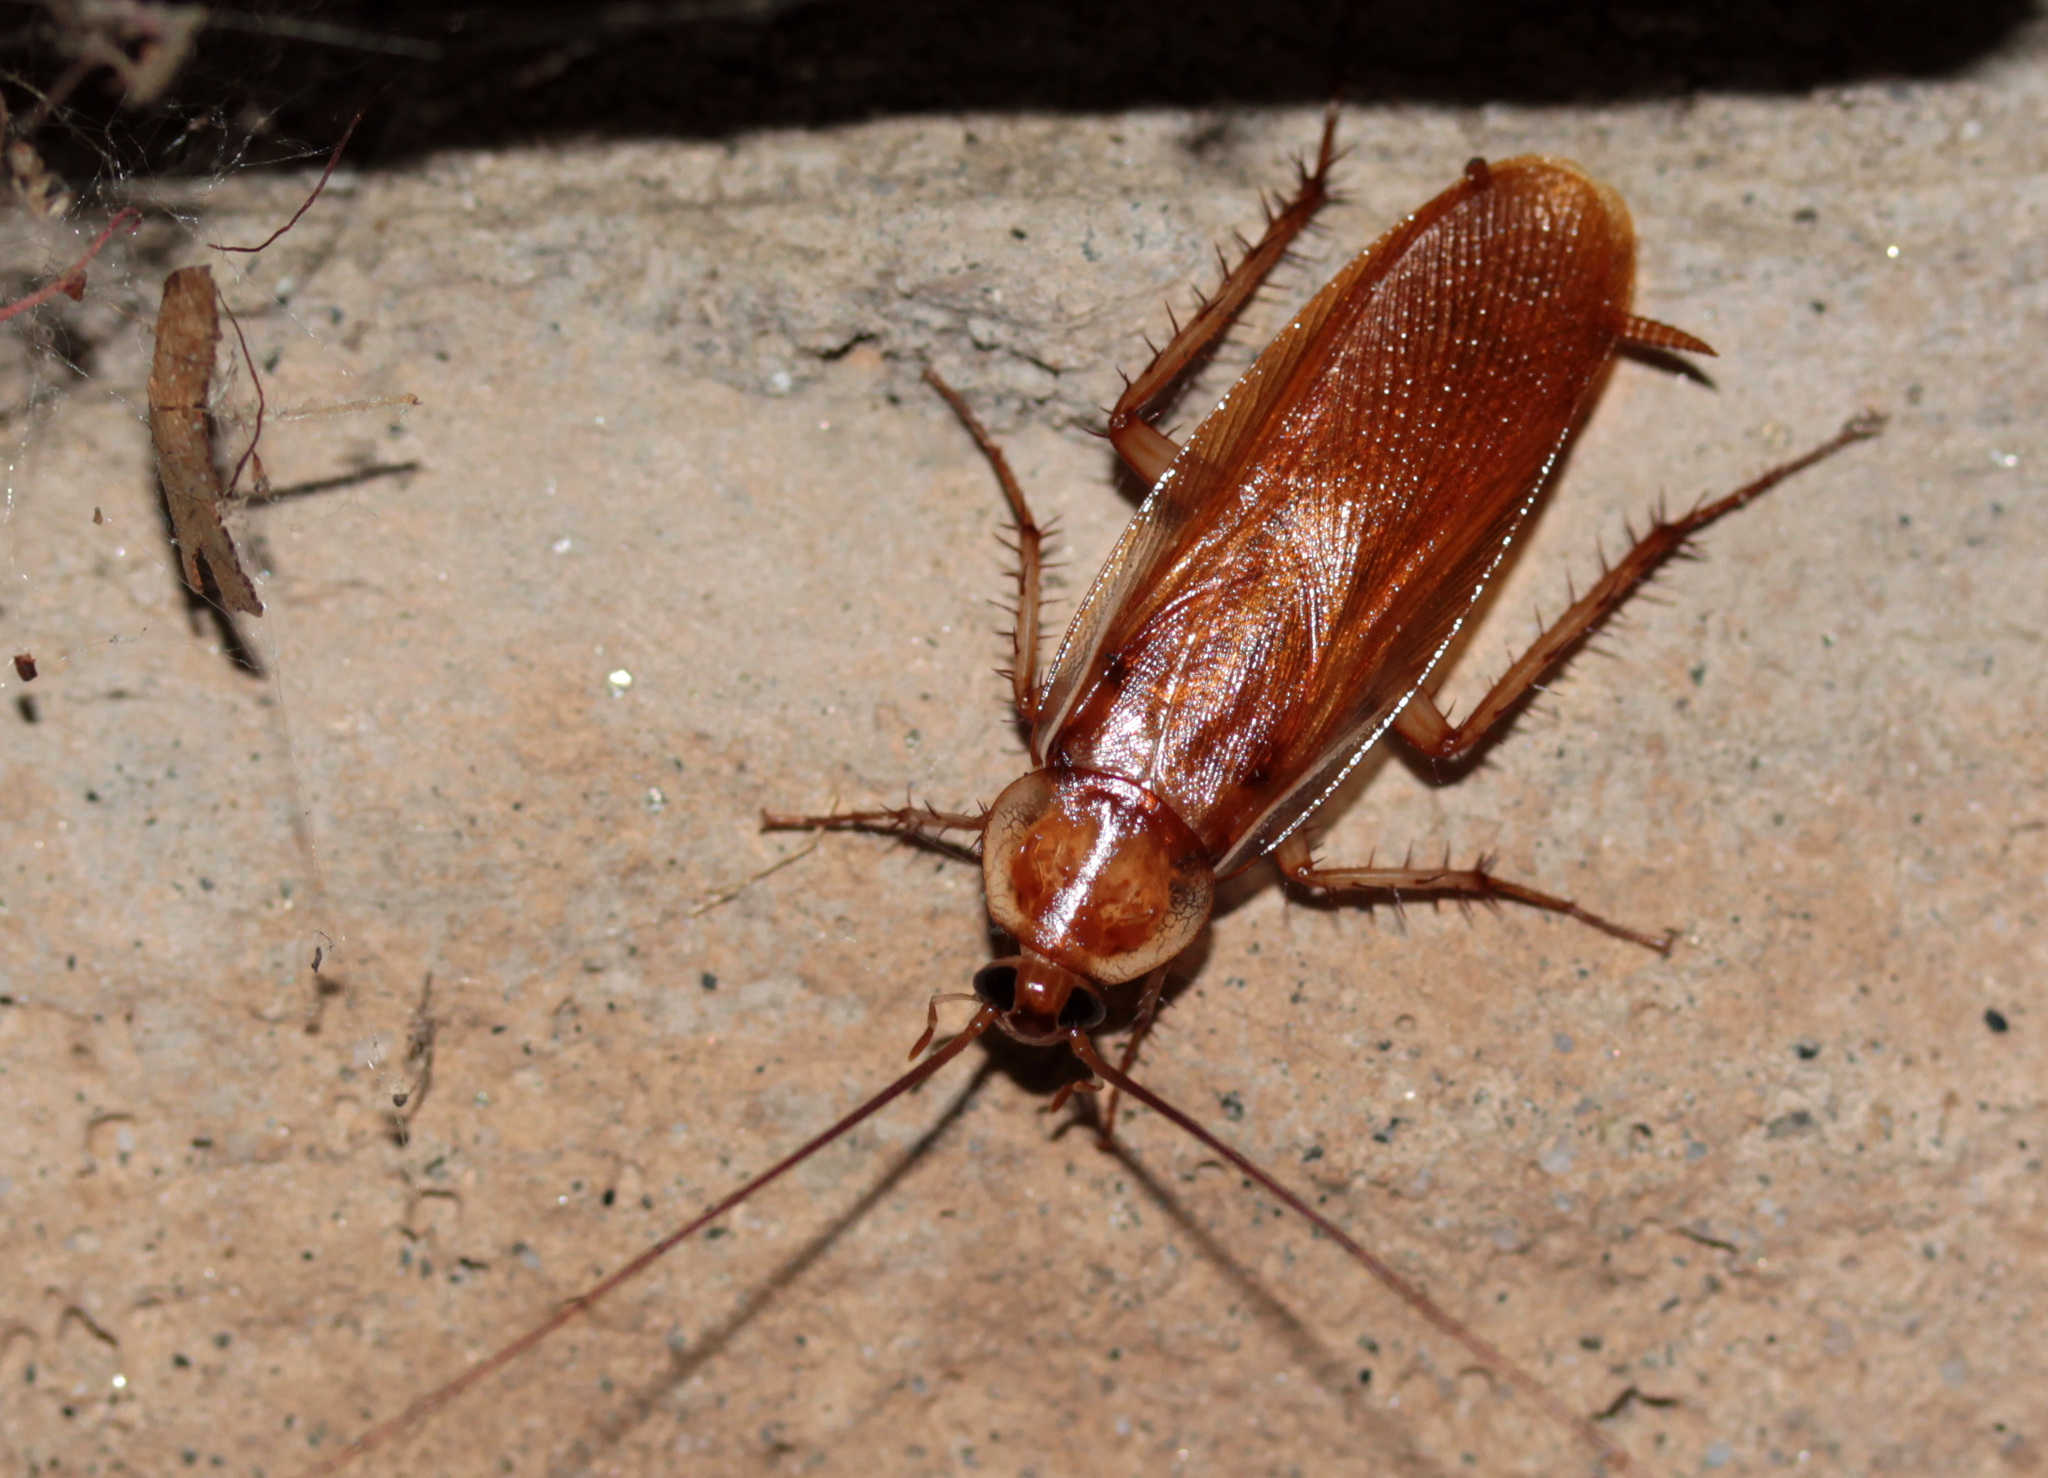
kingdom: Animalia
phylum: Arthropoda
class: Insecta
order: Blattodea
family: Blattidae
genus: Periplaneta
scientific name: Periplaneta lateralis
